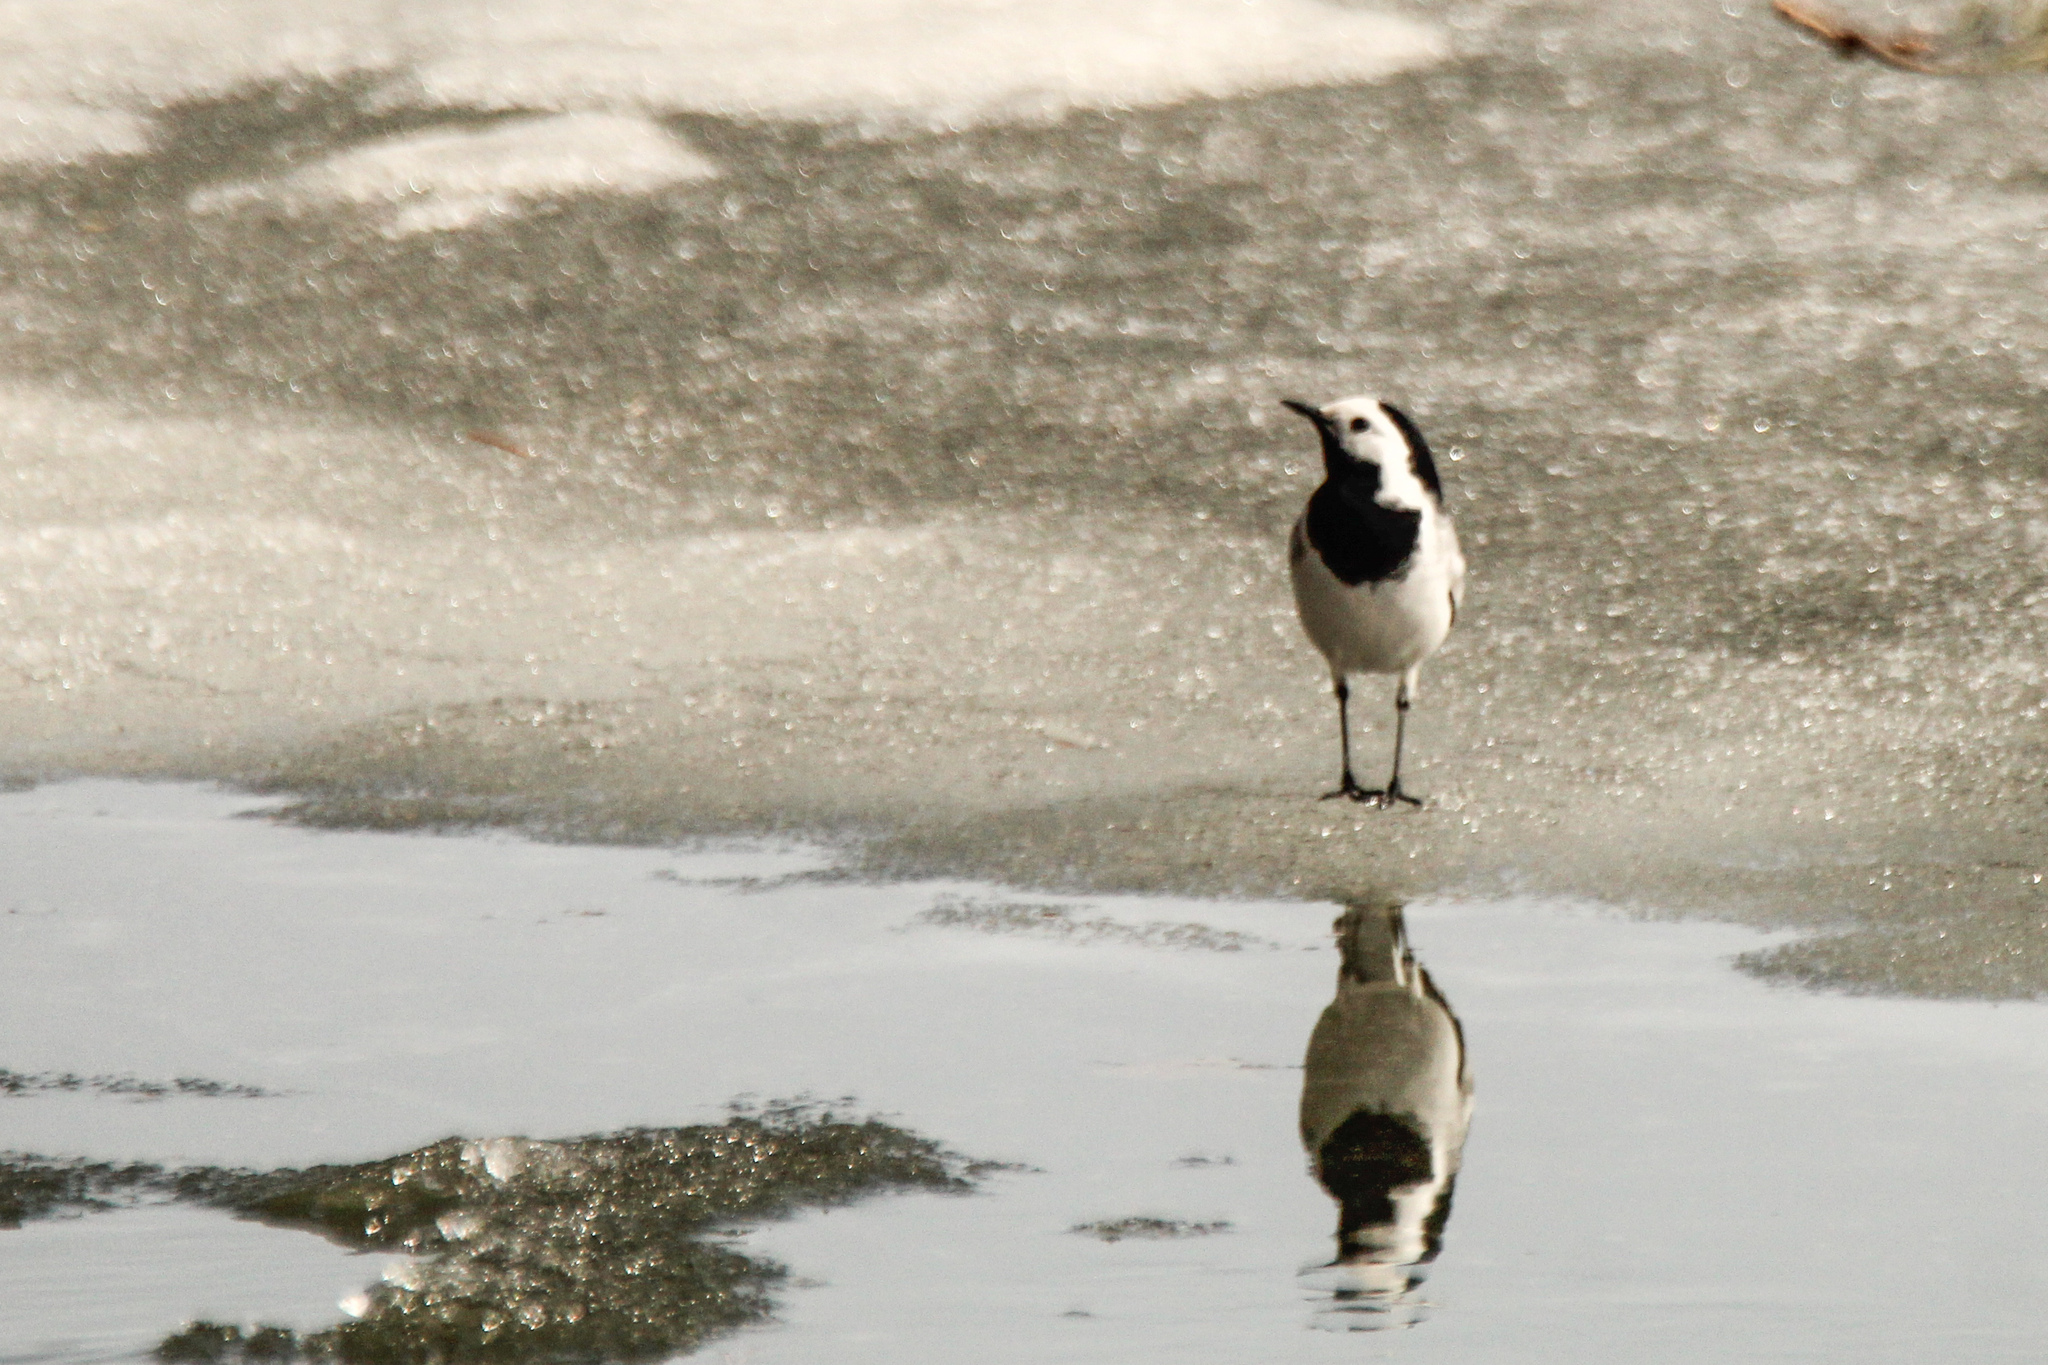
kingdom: Animalia
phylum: Chordata
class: Aves
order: Passeriformes
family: Motacillidae
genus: Motacilla
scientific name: Motacilla alba
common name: White wagtail
